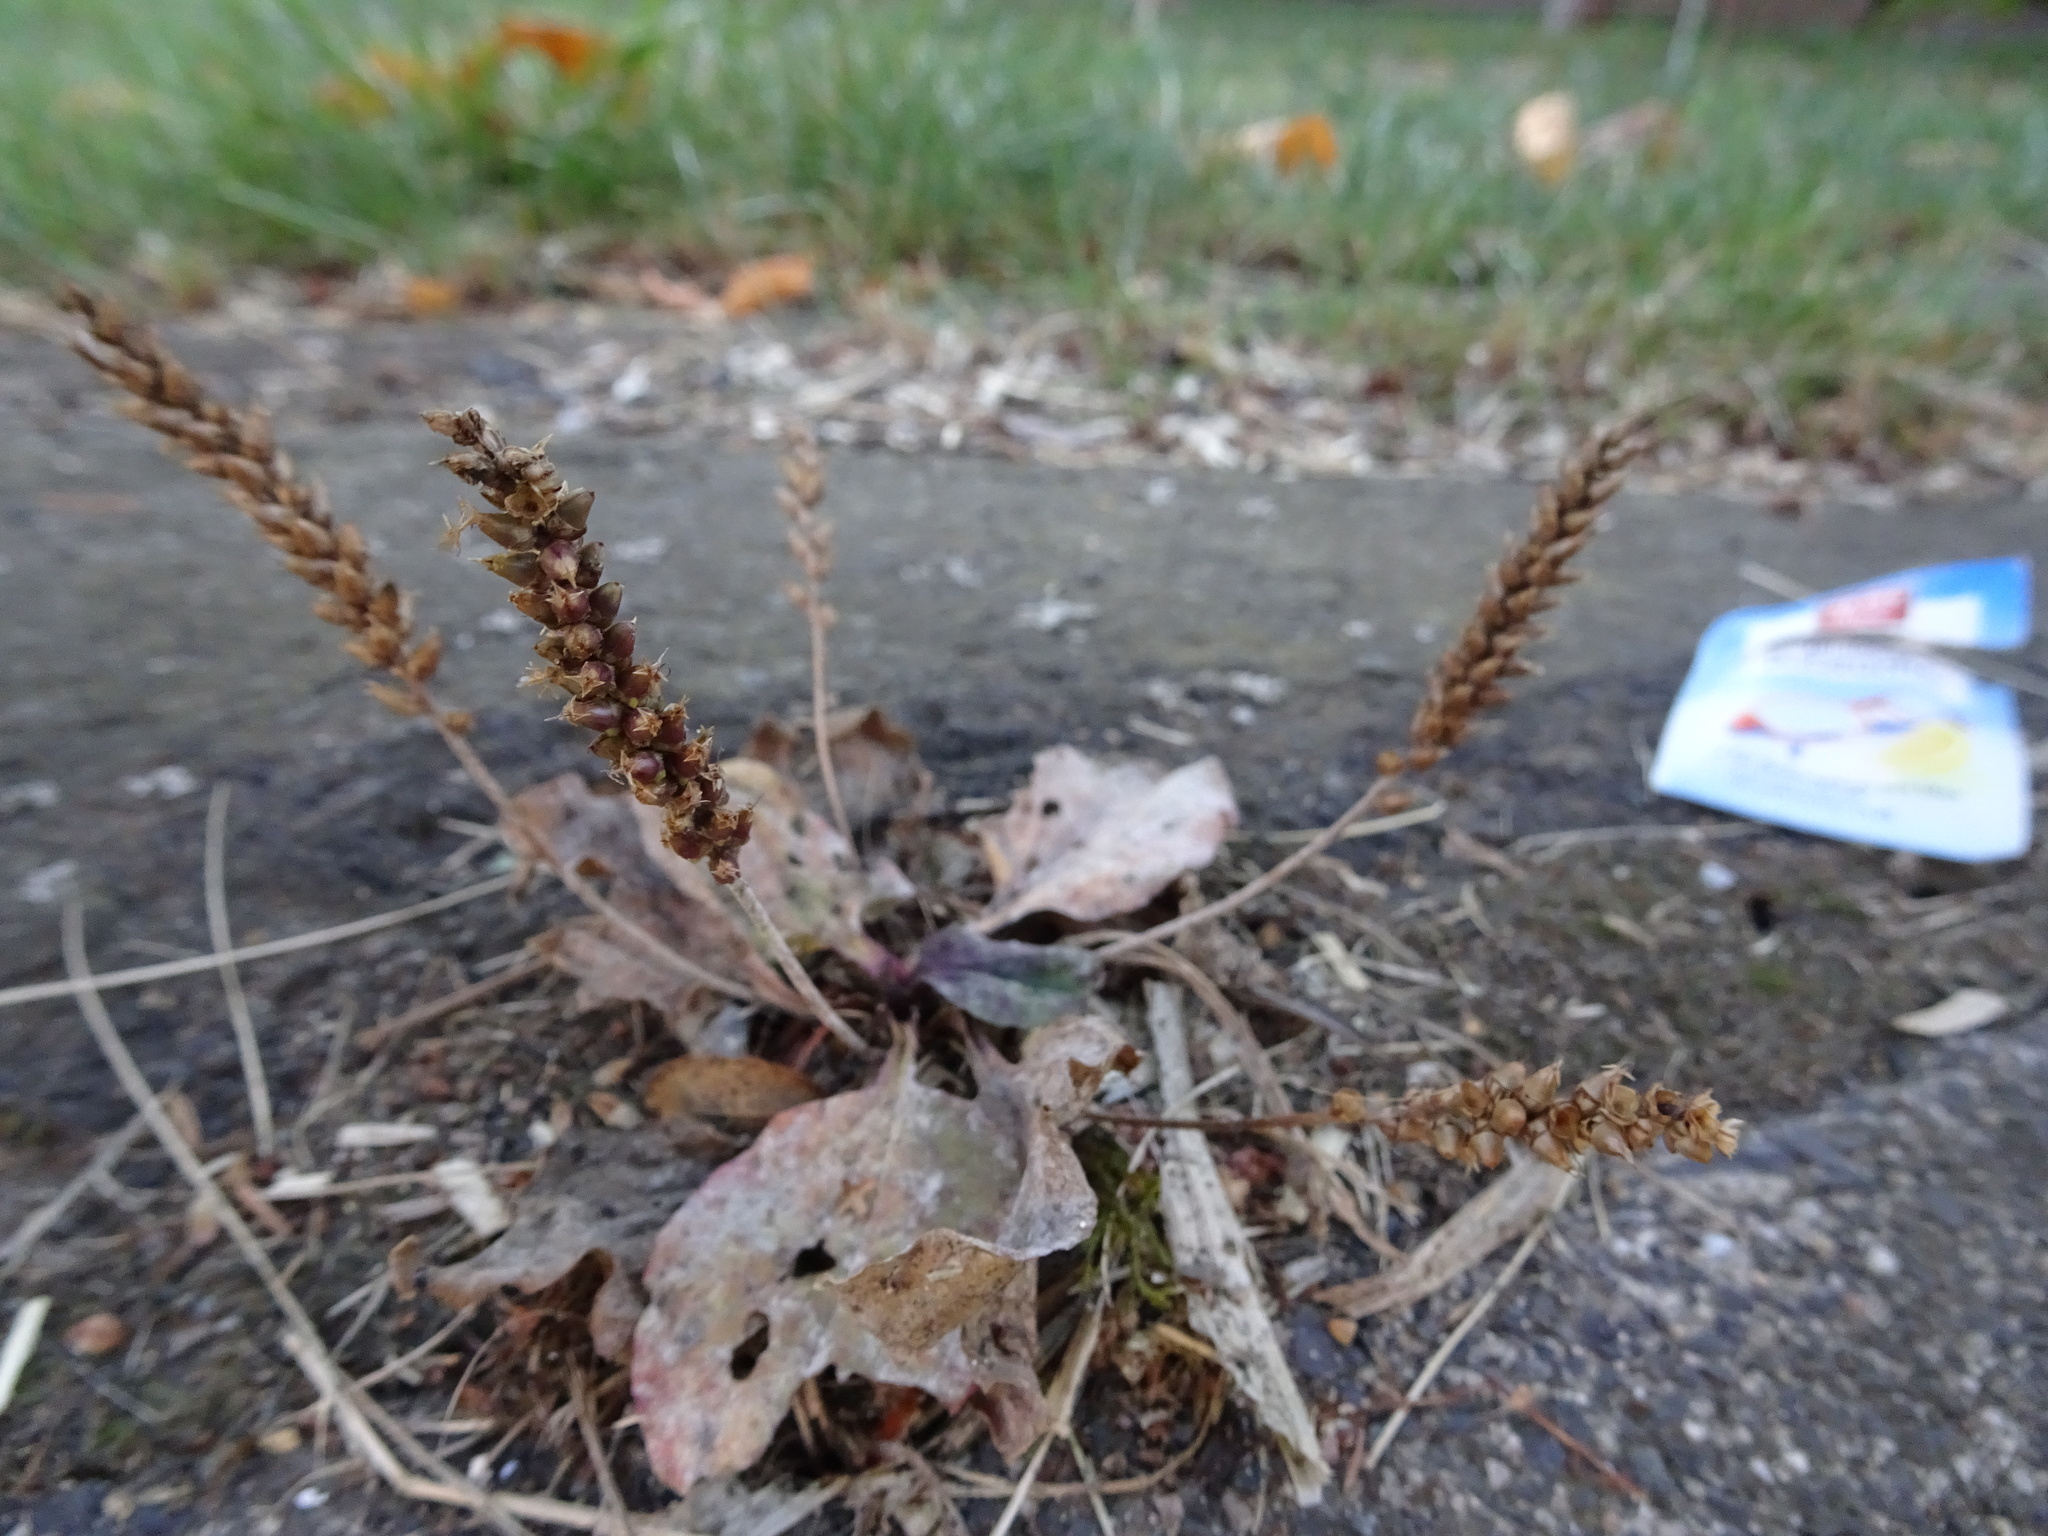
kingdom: Plantae
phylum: Tracheophyta
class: Magnoliopsida
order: Lamiales
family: Plantaginaceae
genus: Plantago
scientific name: Plantago major
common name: Common plantain
